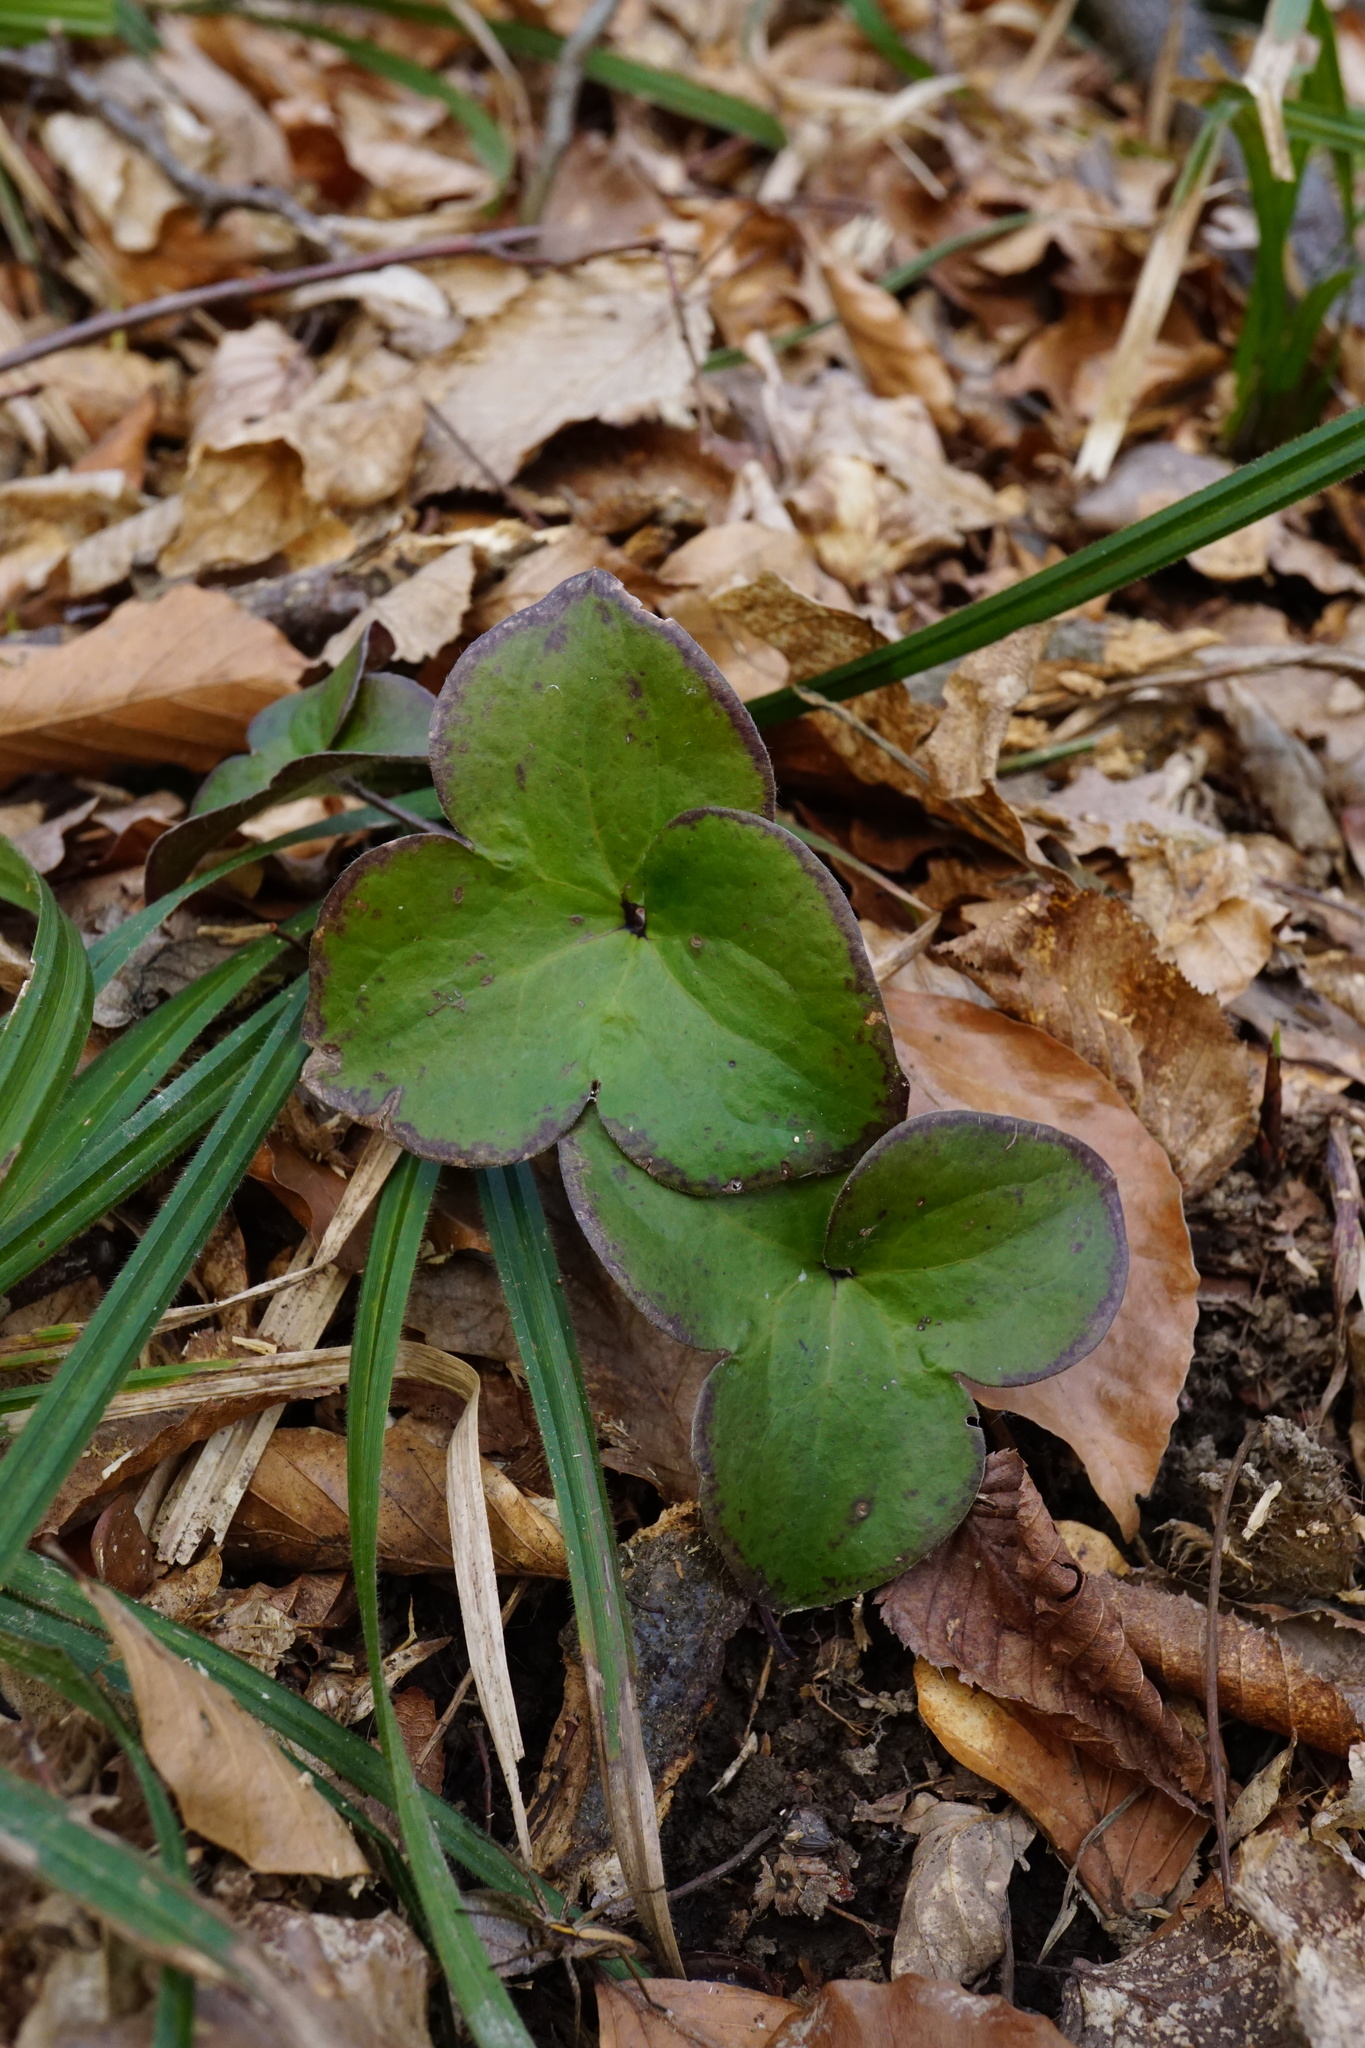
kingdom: Plantae
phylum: Tracheophyta
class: Magnoliopsida
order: Ranunculales
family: Ranunculaceae
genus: Hepatica
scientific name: Hepatica nobilis
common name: Liverleaf
